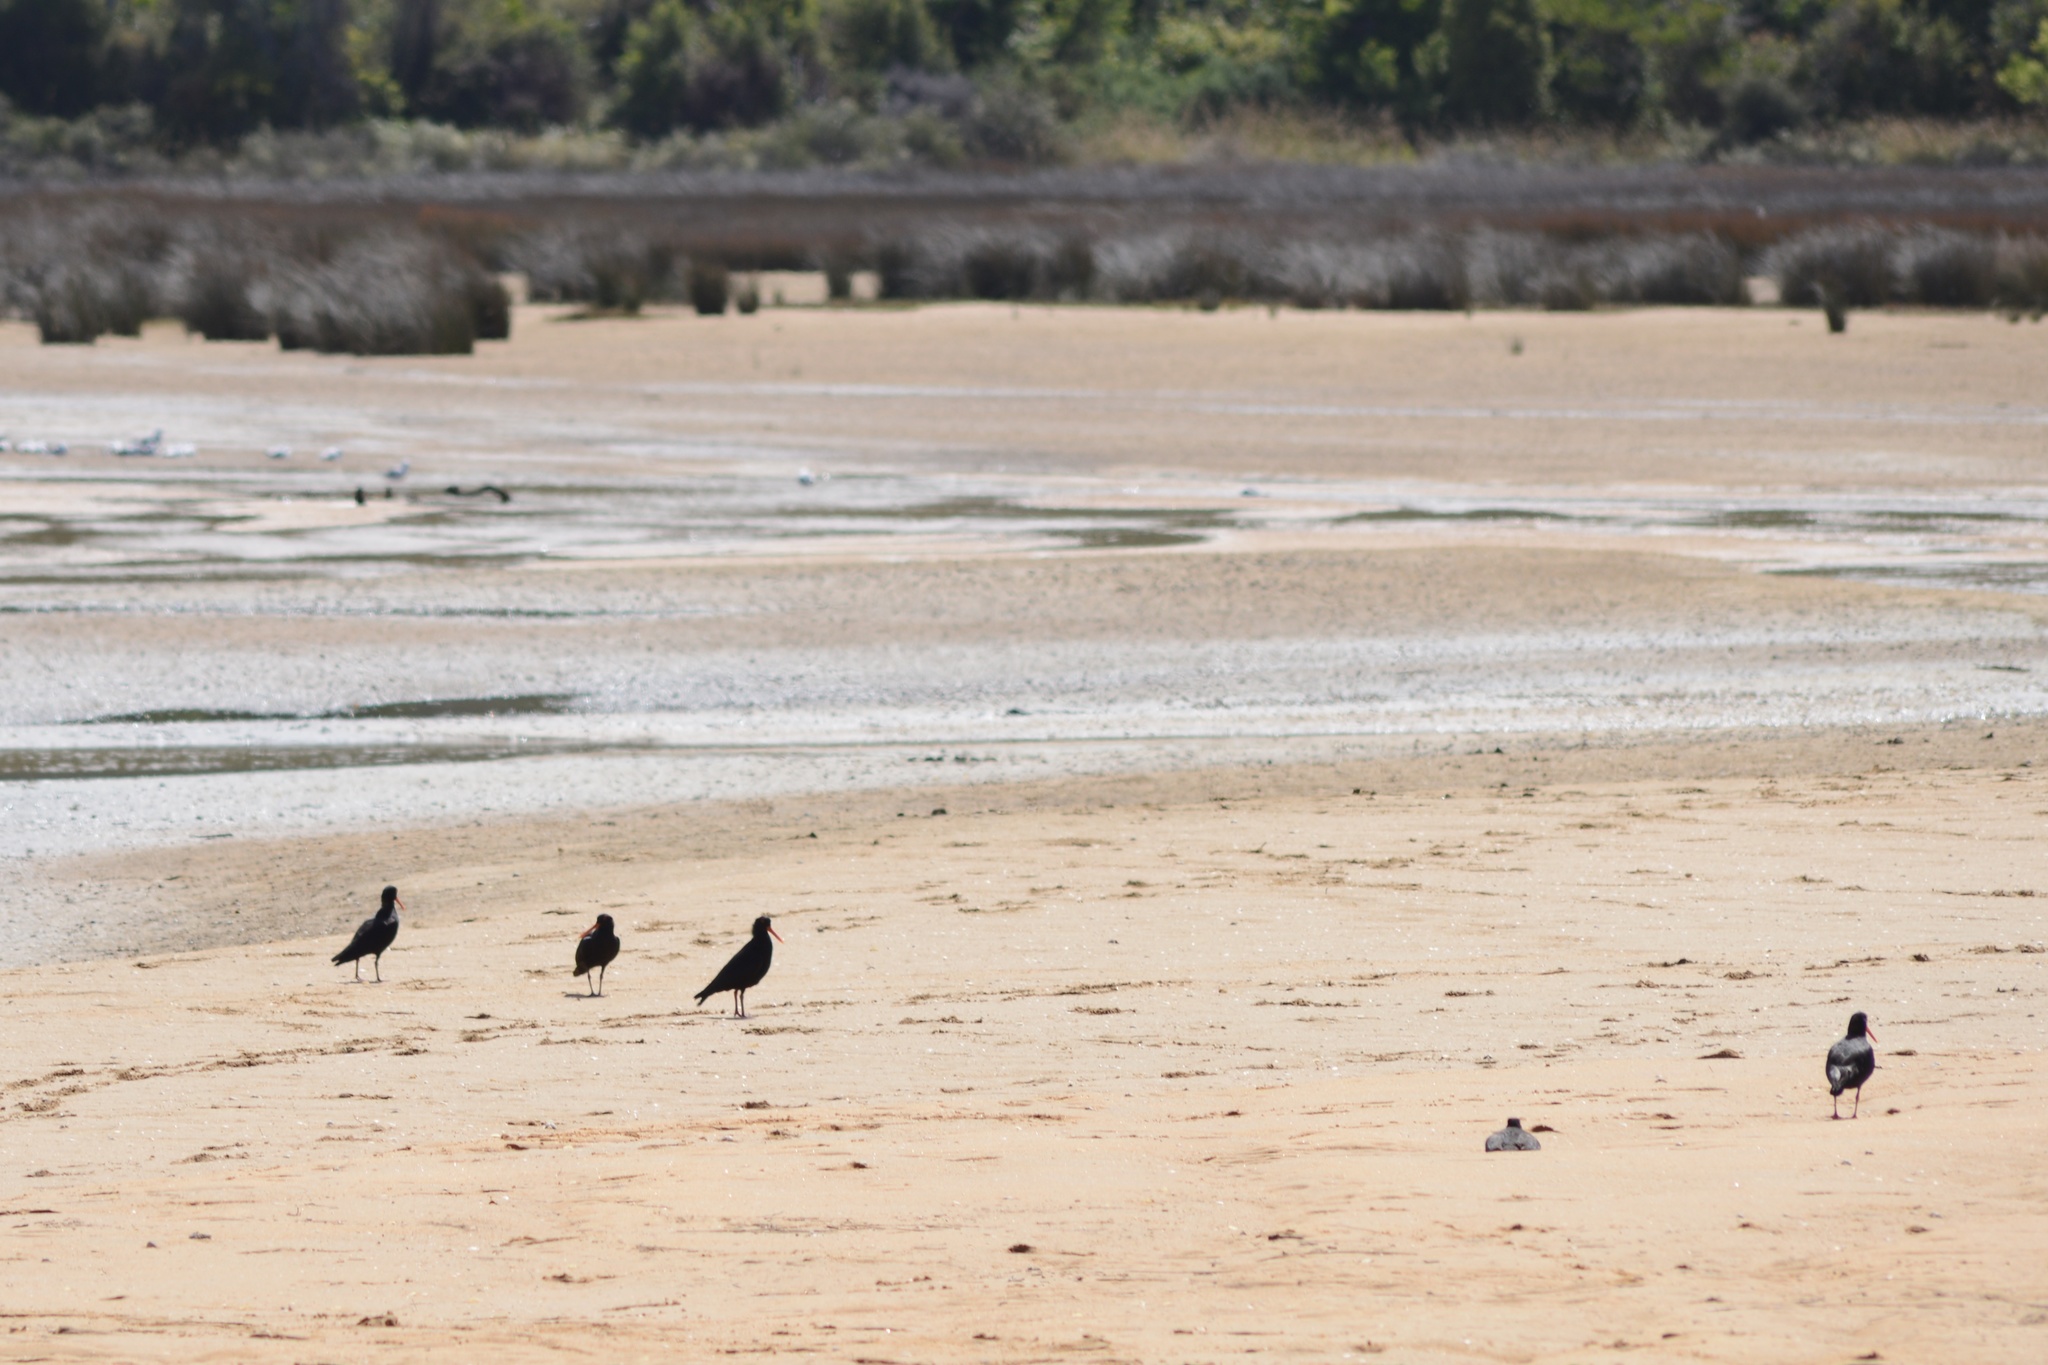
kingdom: Animalia
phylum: Chordata
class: Aves
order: Charadriiformes
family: Haematopodidae
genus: Haematopus
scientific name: Haematopus unicolor
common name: Variable oystercatcher
